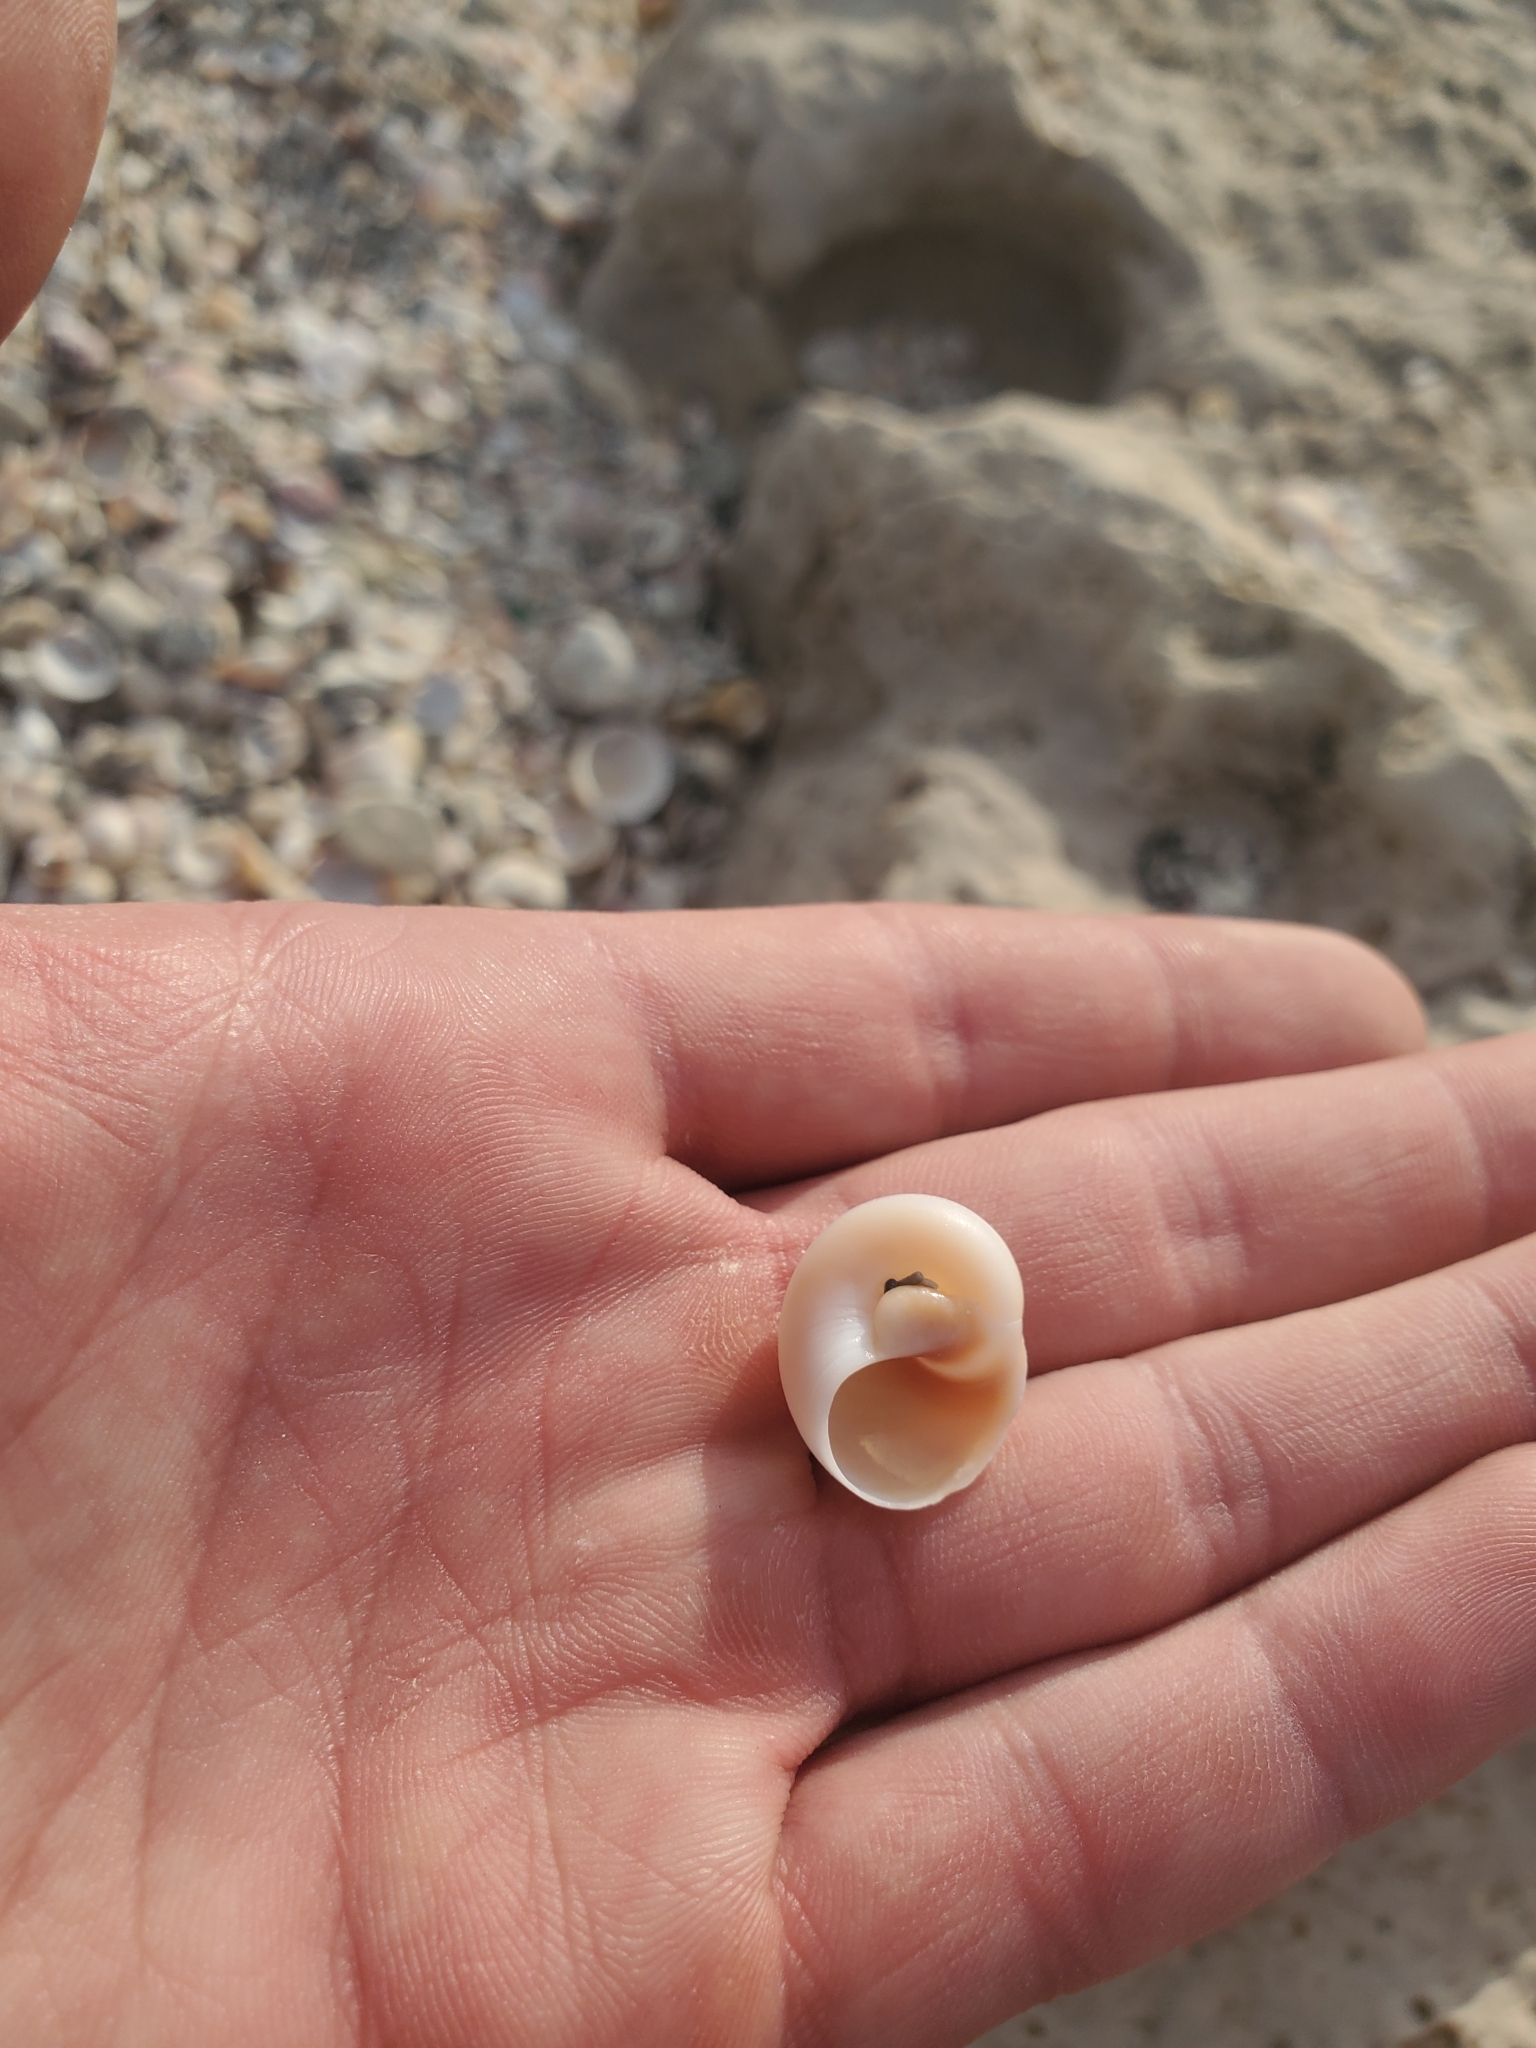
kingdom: Animalia
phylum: Mollusca
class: Gastropoda
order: Littorinimorpha
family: Naticidae
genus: Neverita
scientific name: Neverita josephinia
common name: Josephine's moonsnail
